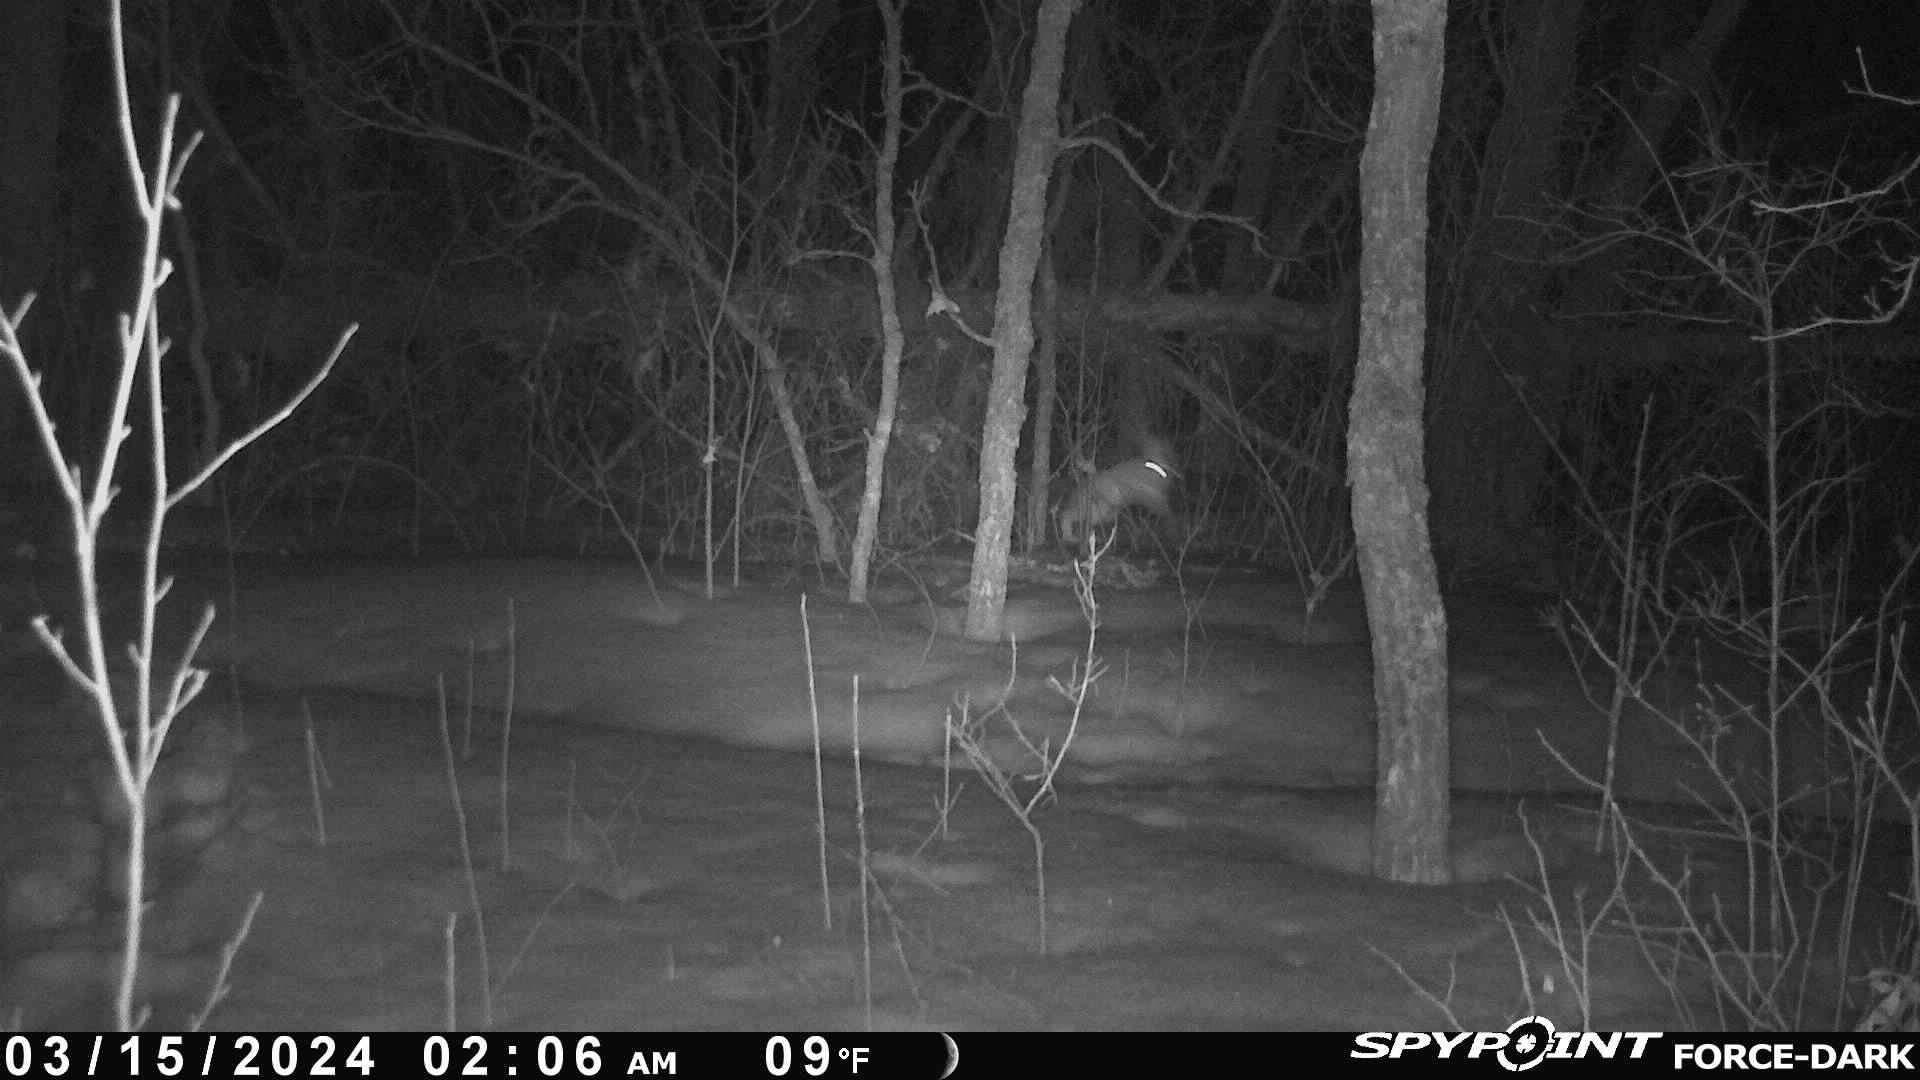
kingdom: Animalia
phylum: Chordata
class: Mammalia
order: Lagomorpha
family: Leporidae
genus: Lepus
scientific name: Lepus americanus
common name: Snowshoe hare
